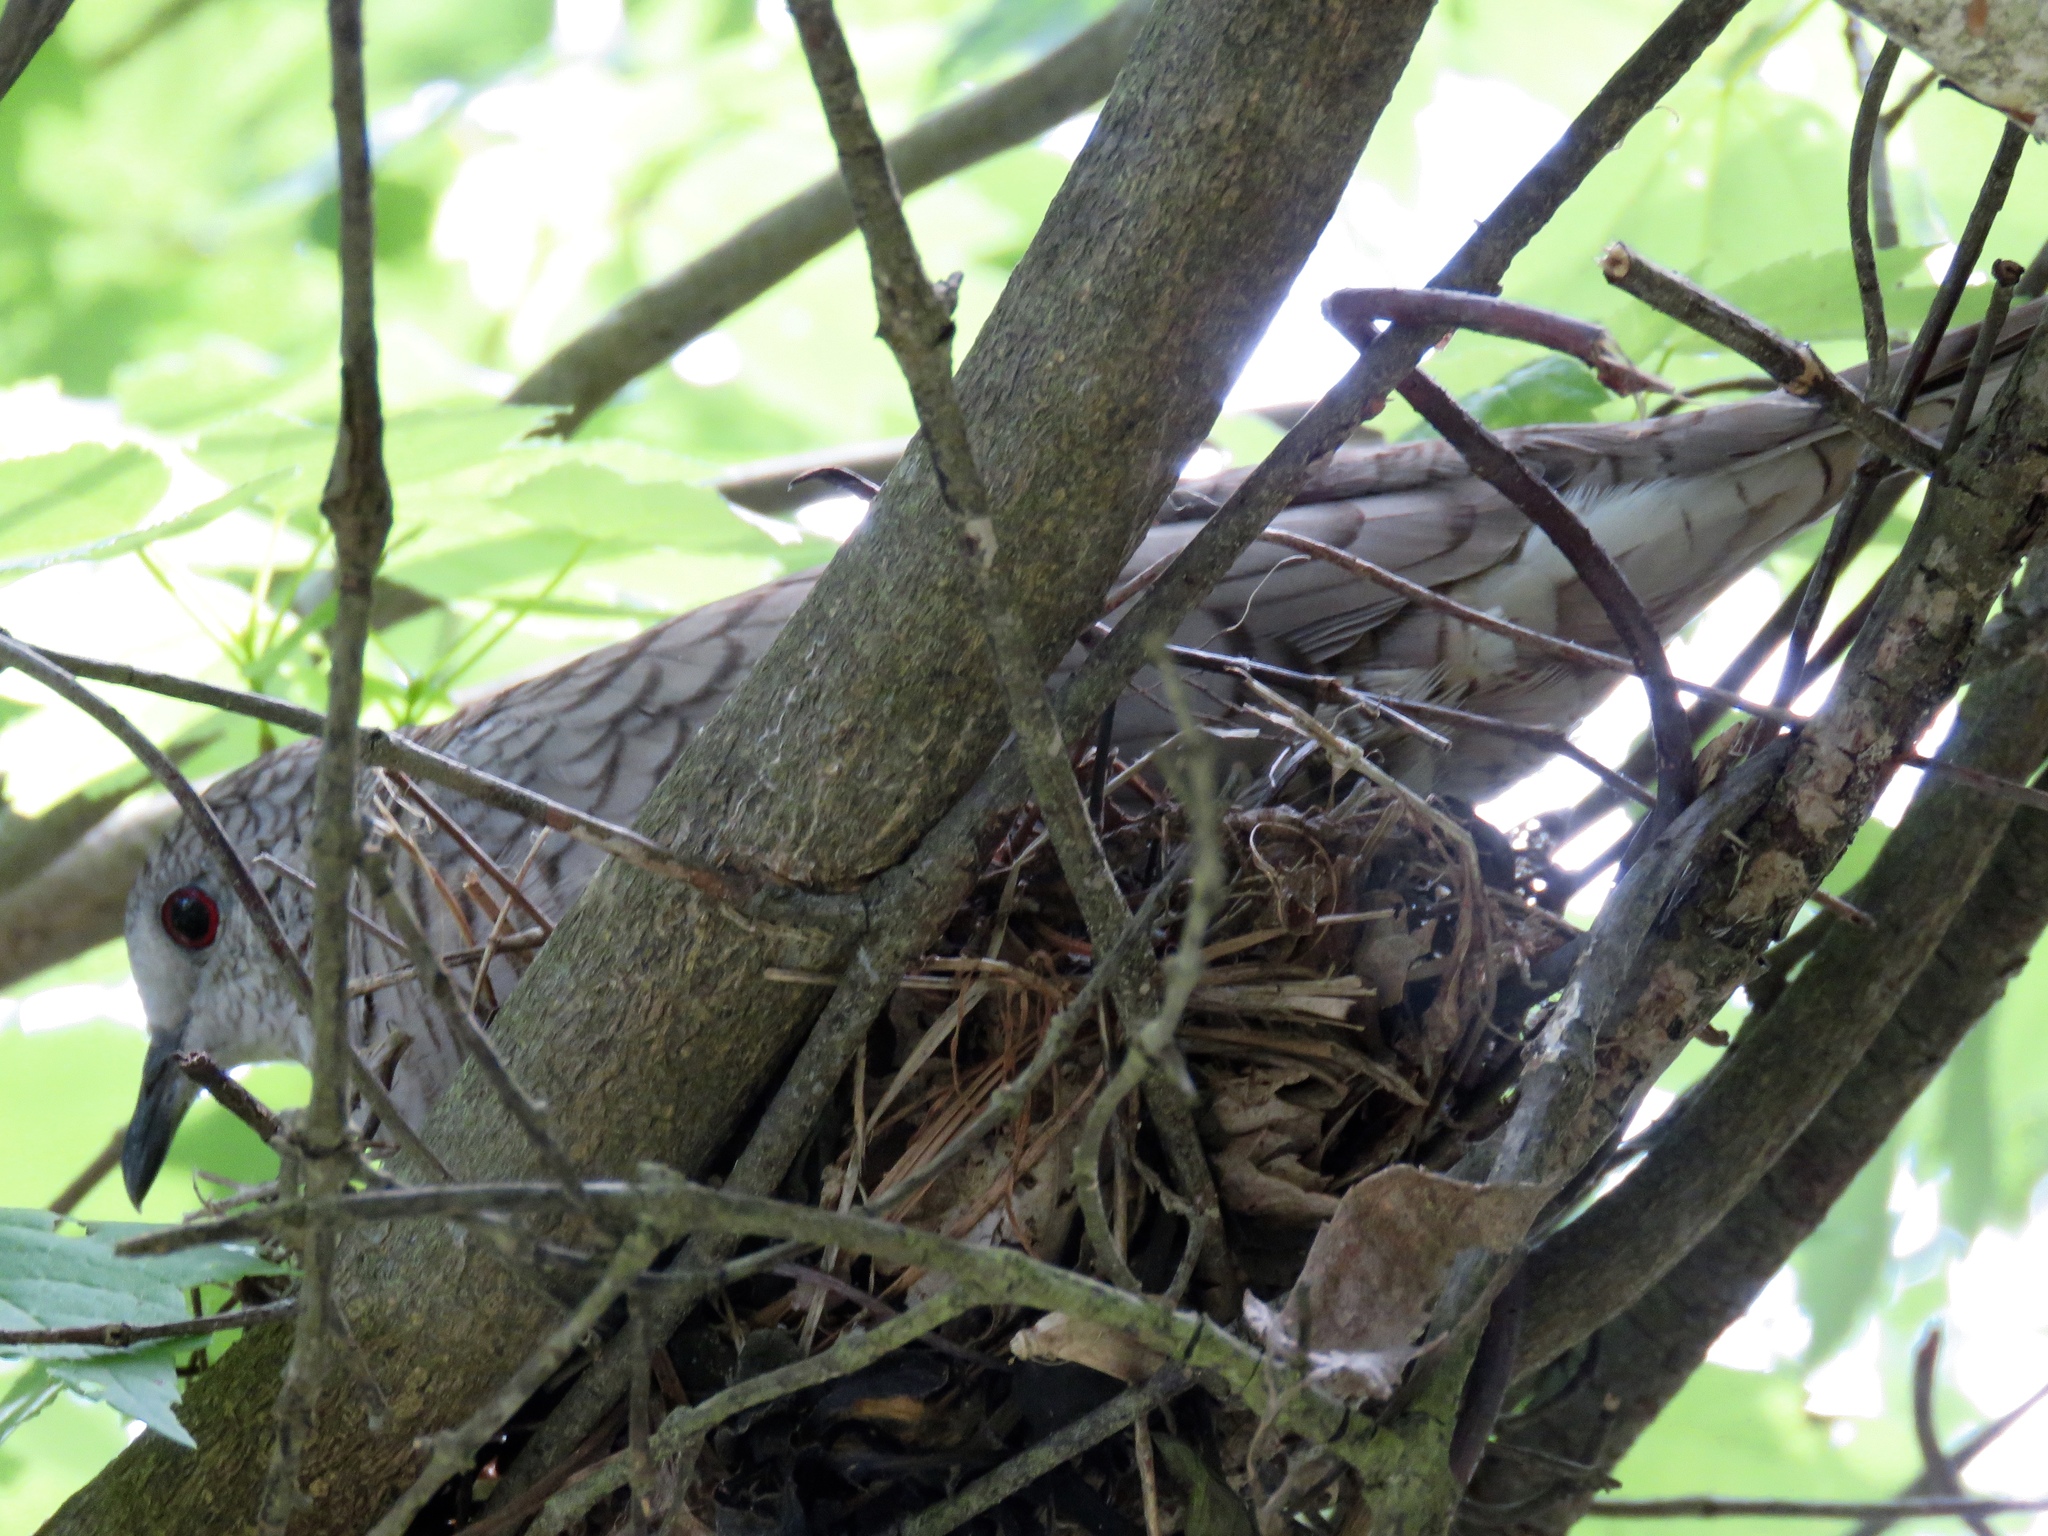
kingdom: Animalia
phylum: Chordata
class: Aves
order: Columbiformes
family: Columbidae
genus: Columbina
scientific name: Columbina inca
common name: Inca dove
